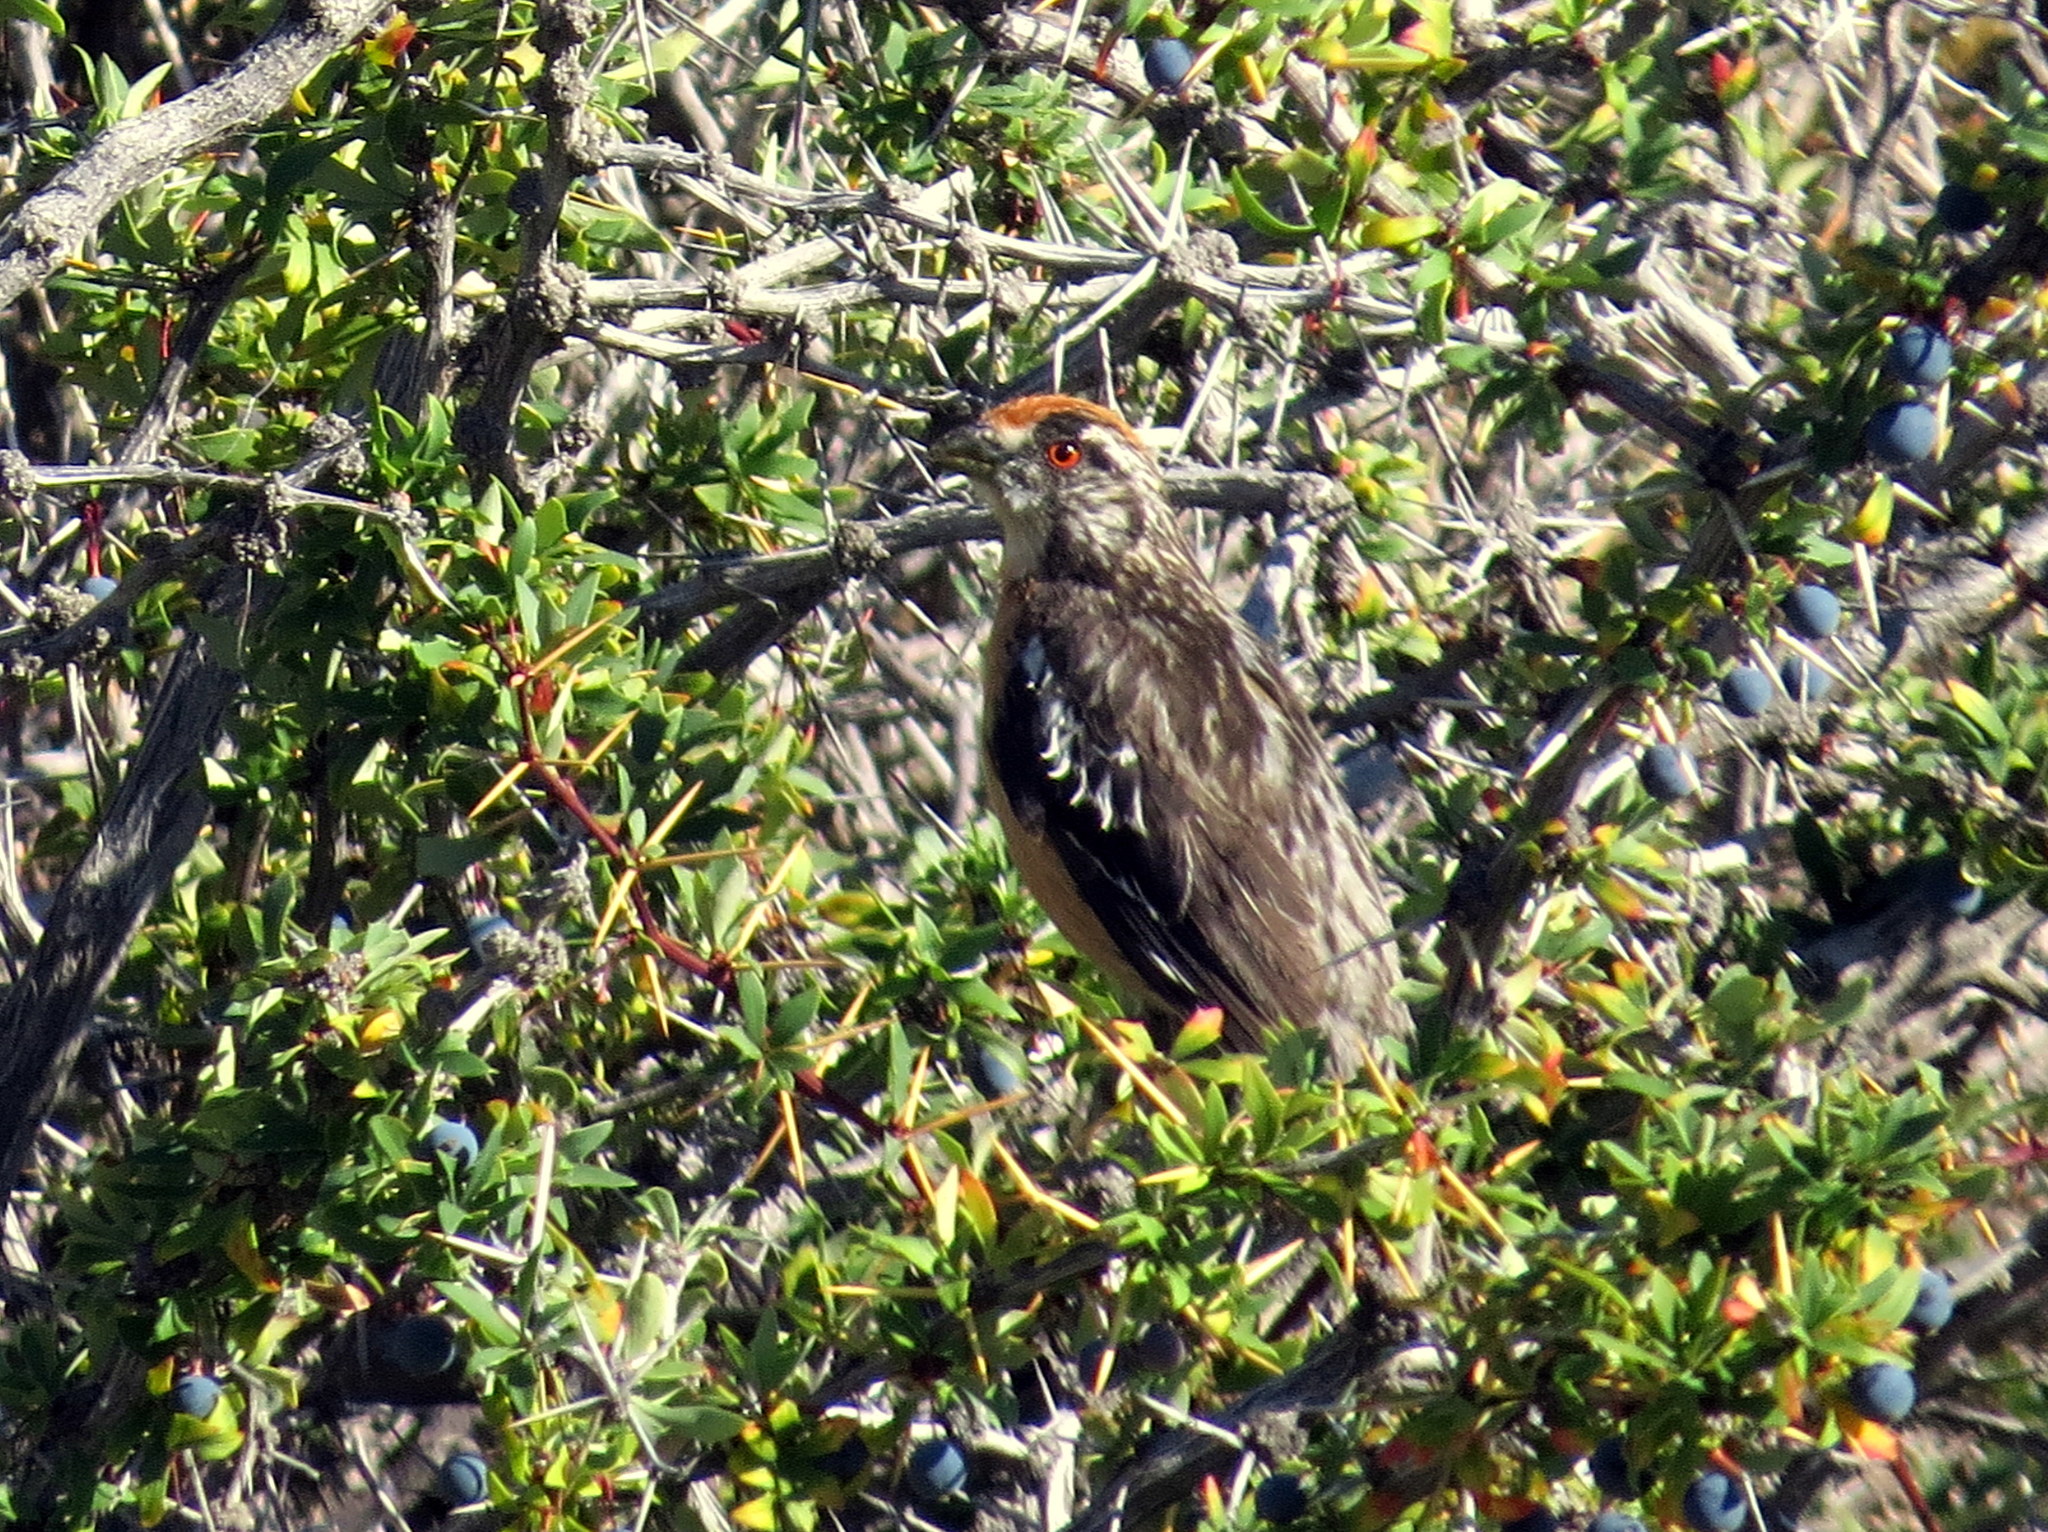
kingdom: Animalia
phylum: Chordata
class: Aves
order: Passeriformes
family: Cotingidae
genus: Phytotoma
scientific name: Phytotoma rara
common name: Rufous-tailed plantcutter
